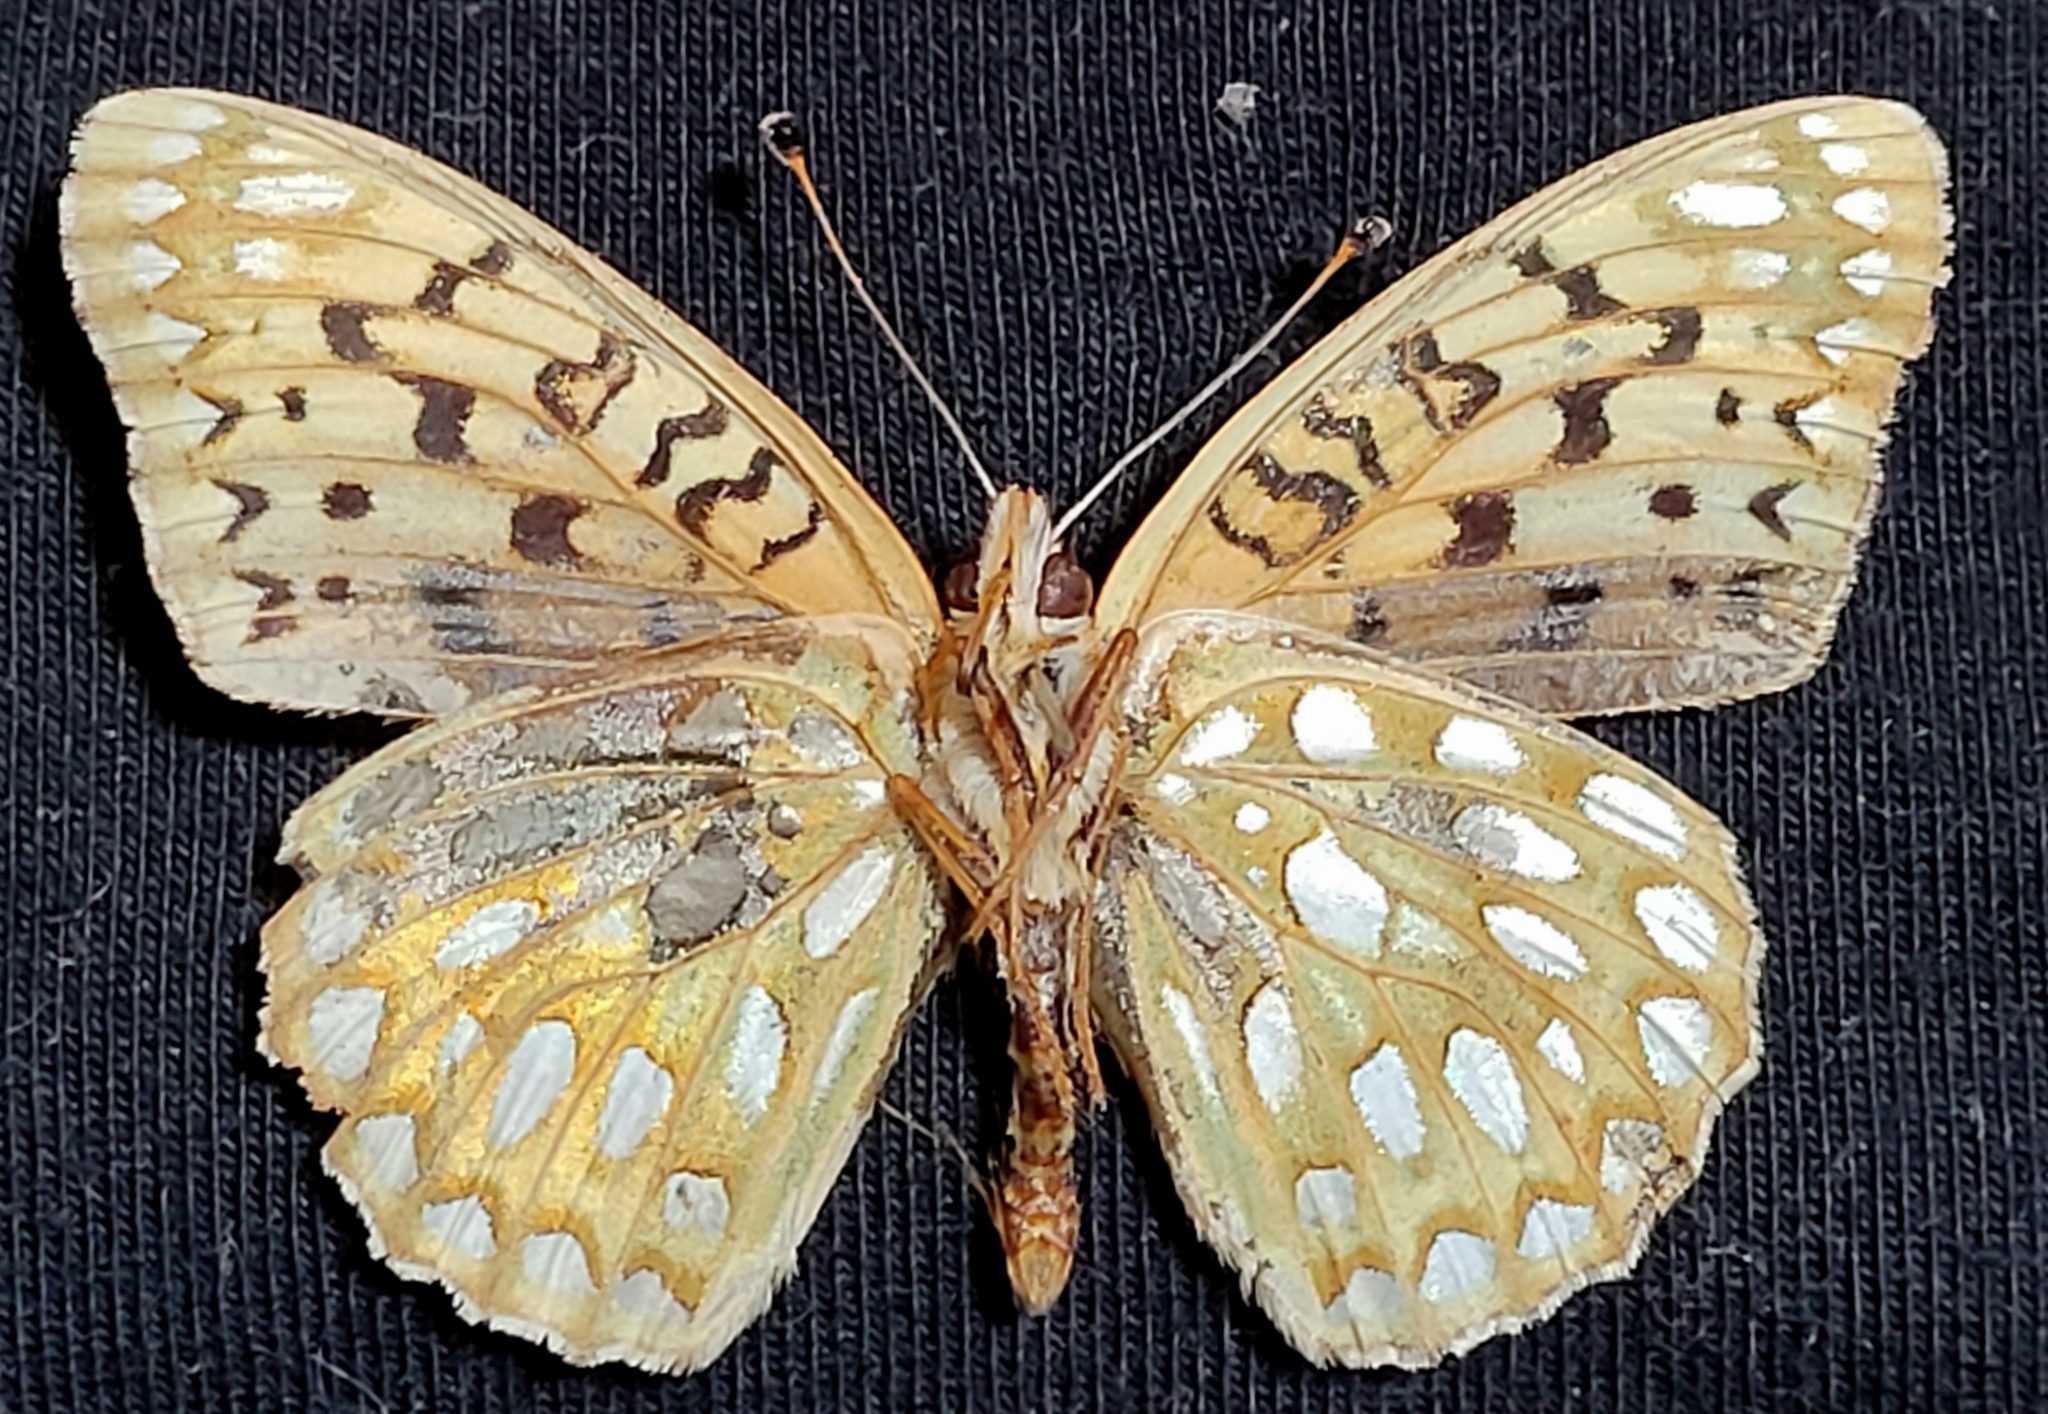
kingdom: Animalia
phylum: Arthropoda
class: Insecta
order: Lepidoptera
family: Nymphalidae
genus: Speyeria
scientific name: Speyeria callippe
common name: Callippe fritillary
